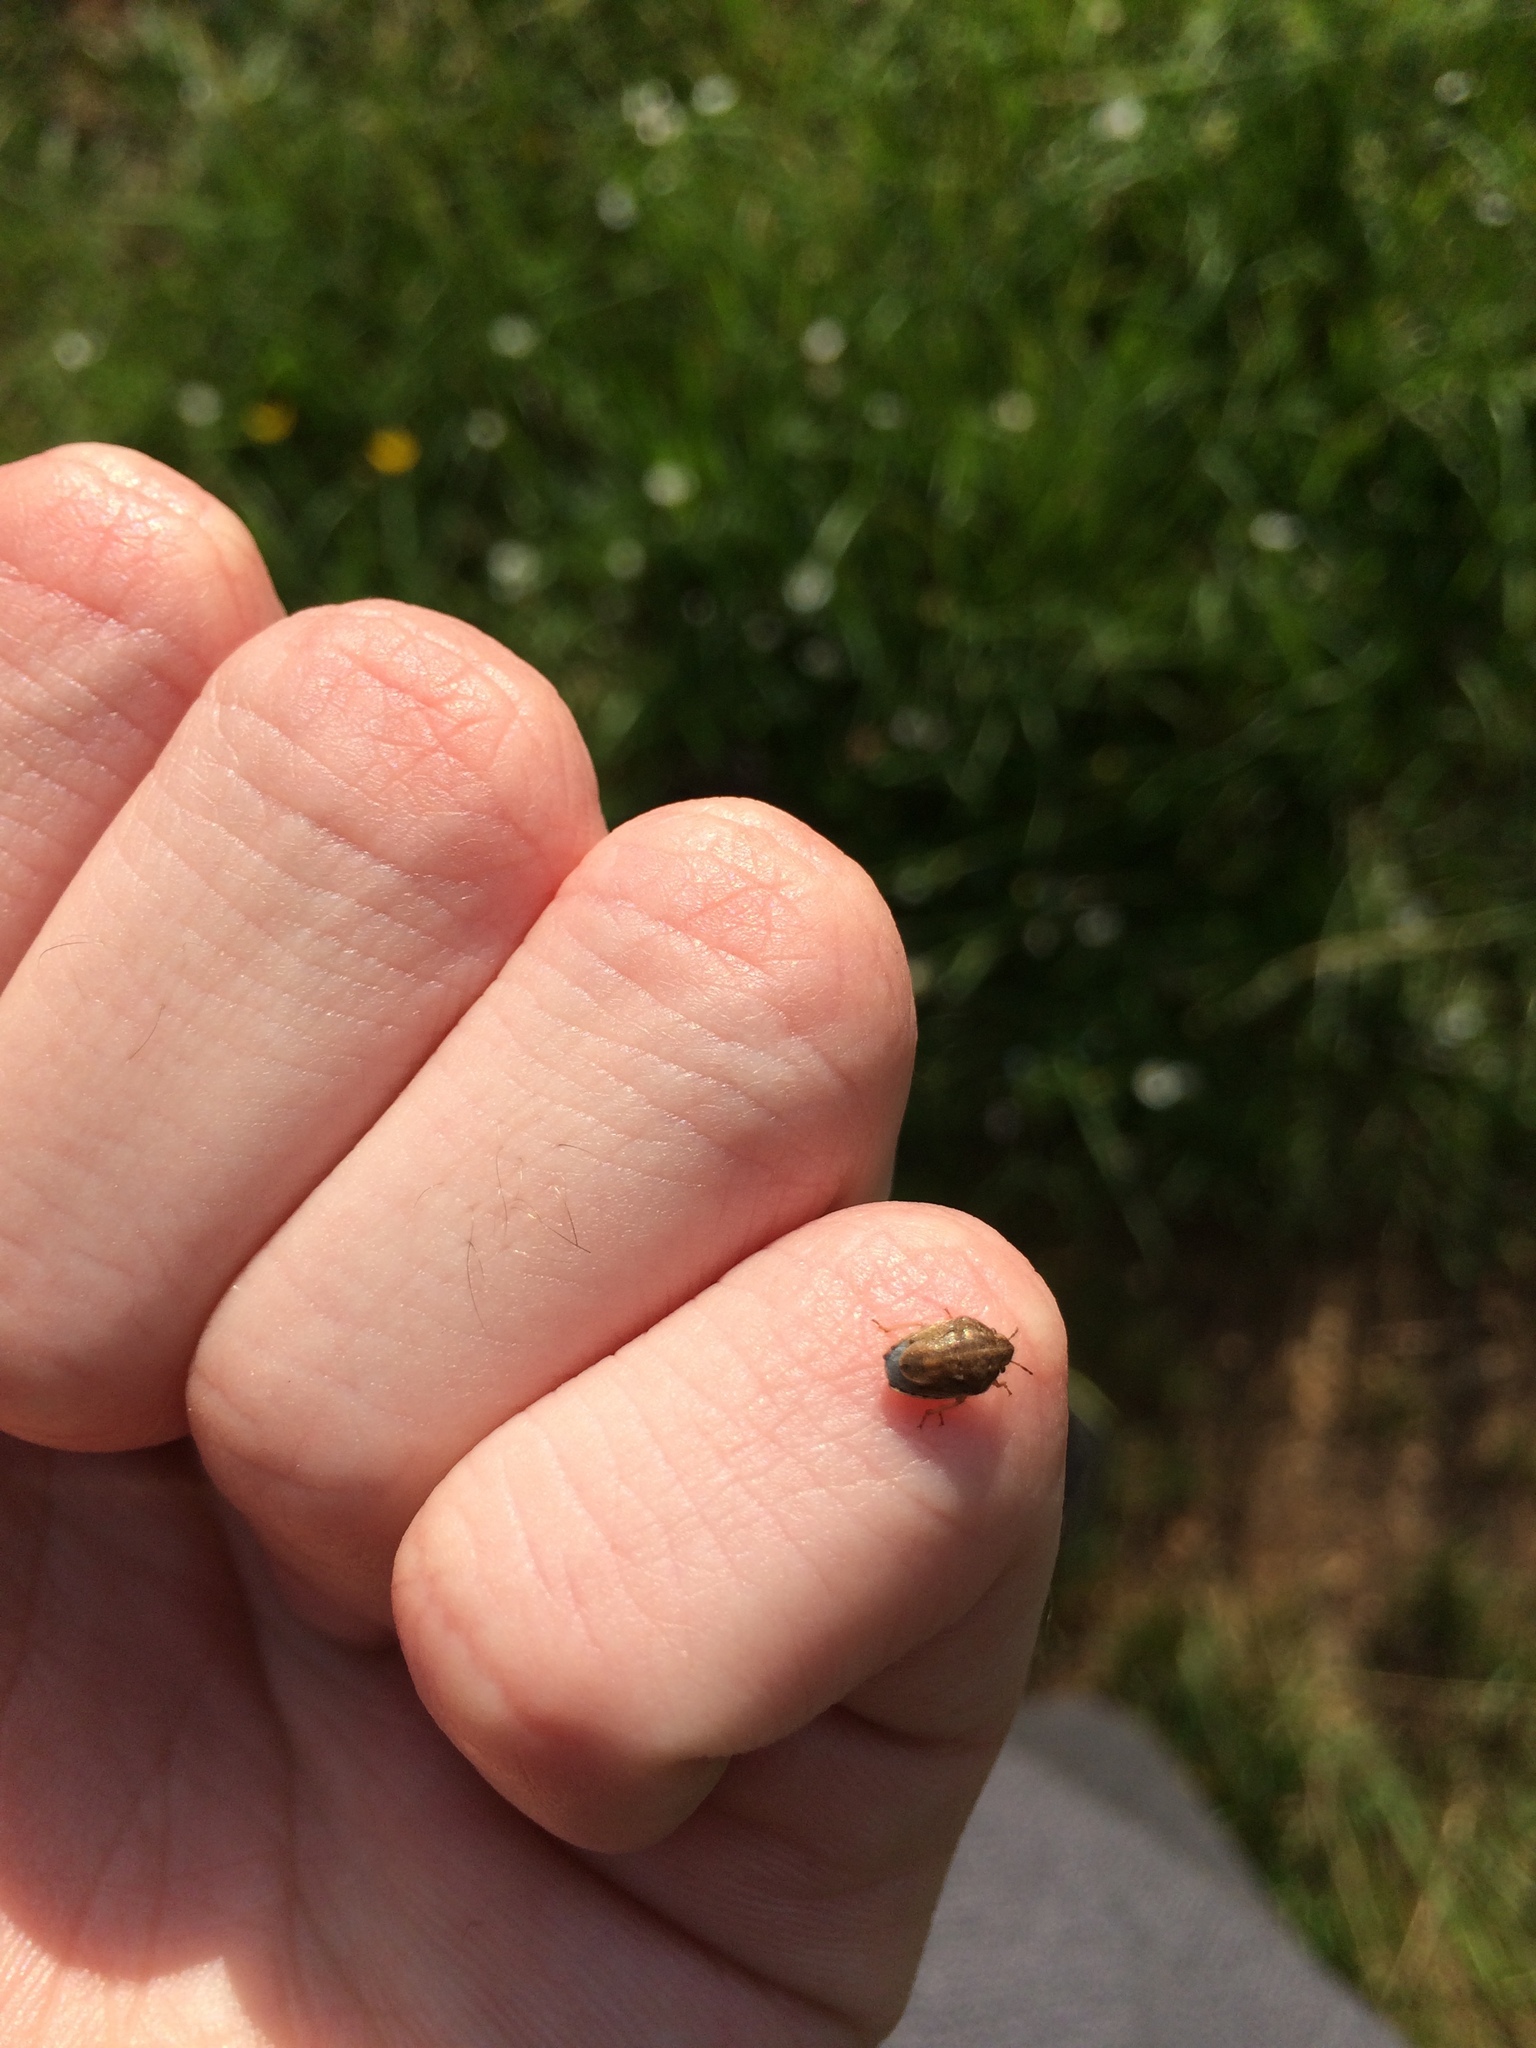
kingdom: Animalia
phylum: Arthropoda
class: Insecta
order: Hemiptera
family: Pentatomidae
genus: Neottiglossa
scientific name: Neottiglossa leporina
